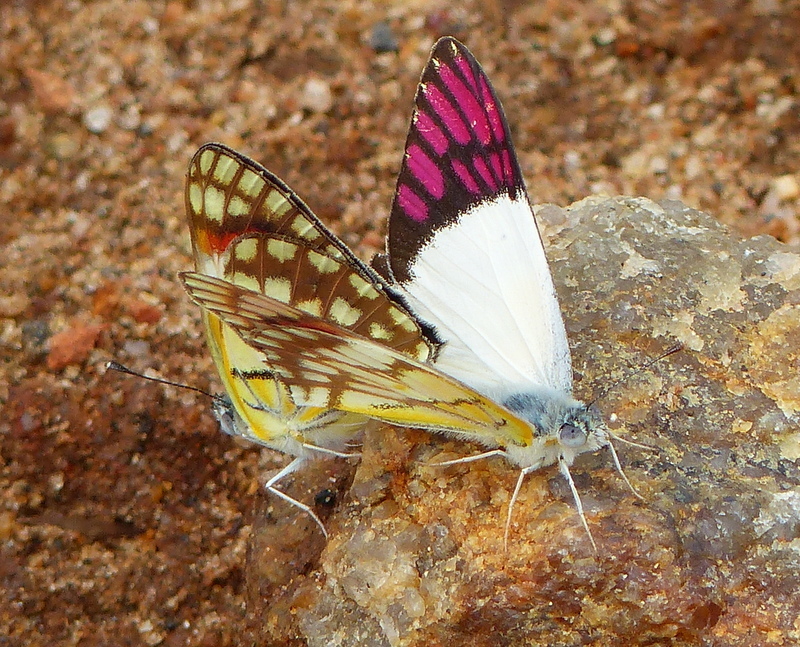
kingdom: Animalia
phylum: Arthropoda
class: Insecta
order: Lepidoptera
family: Pieridae
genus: Colotis
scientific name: Colotis celimene
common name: Lilac tip
